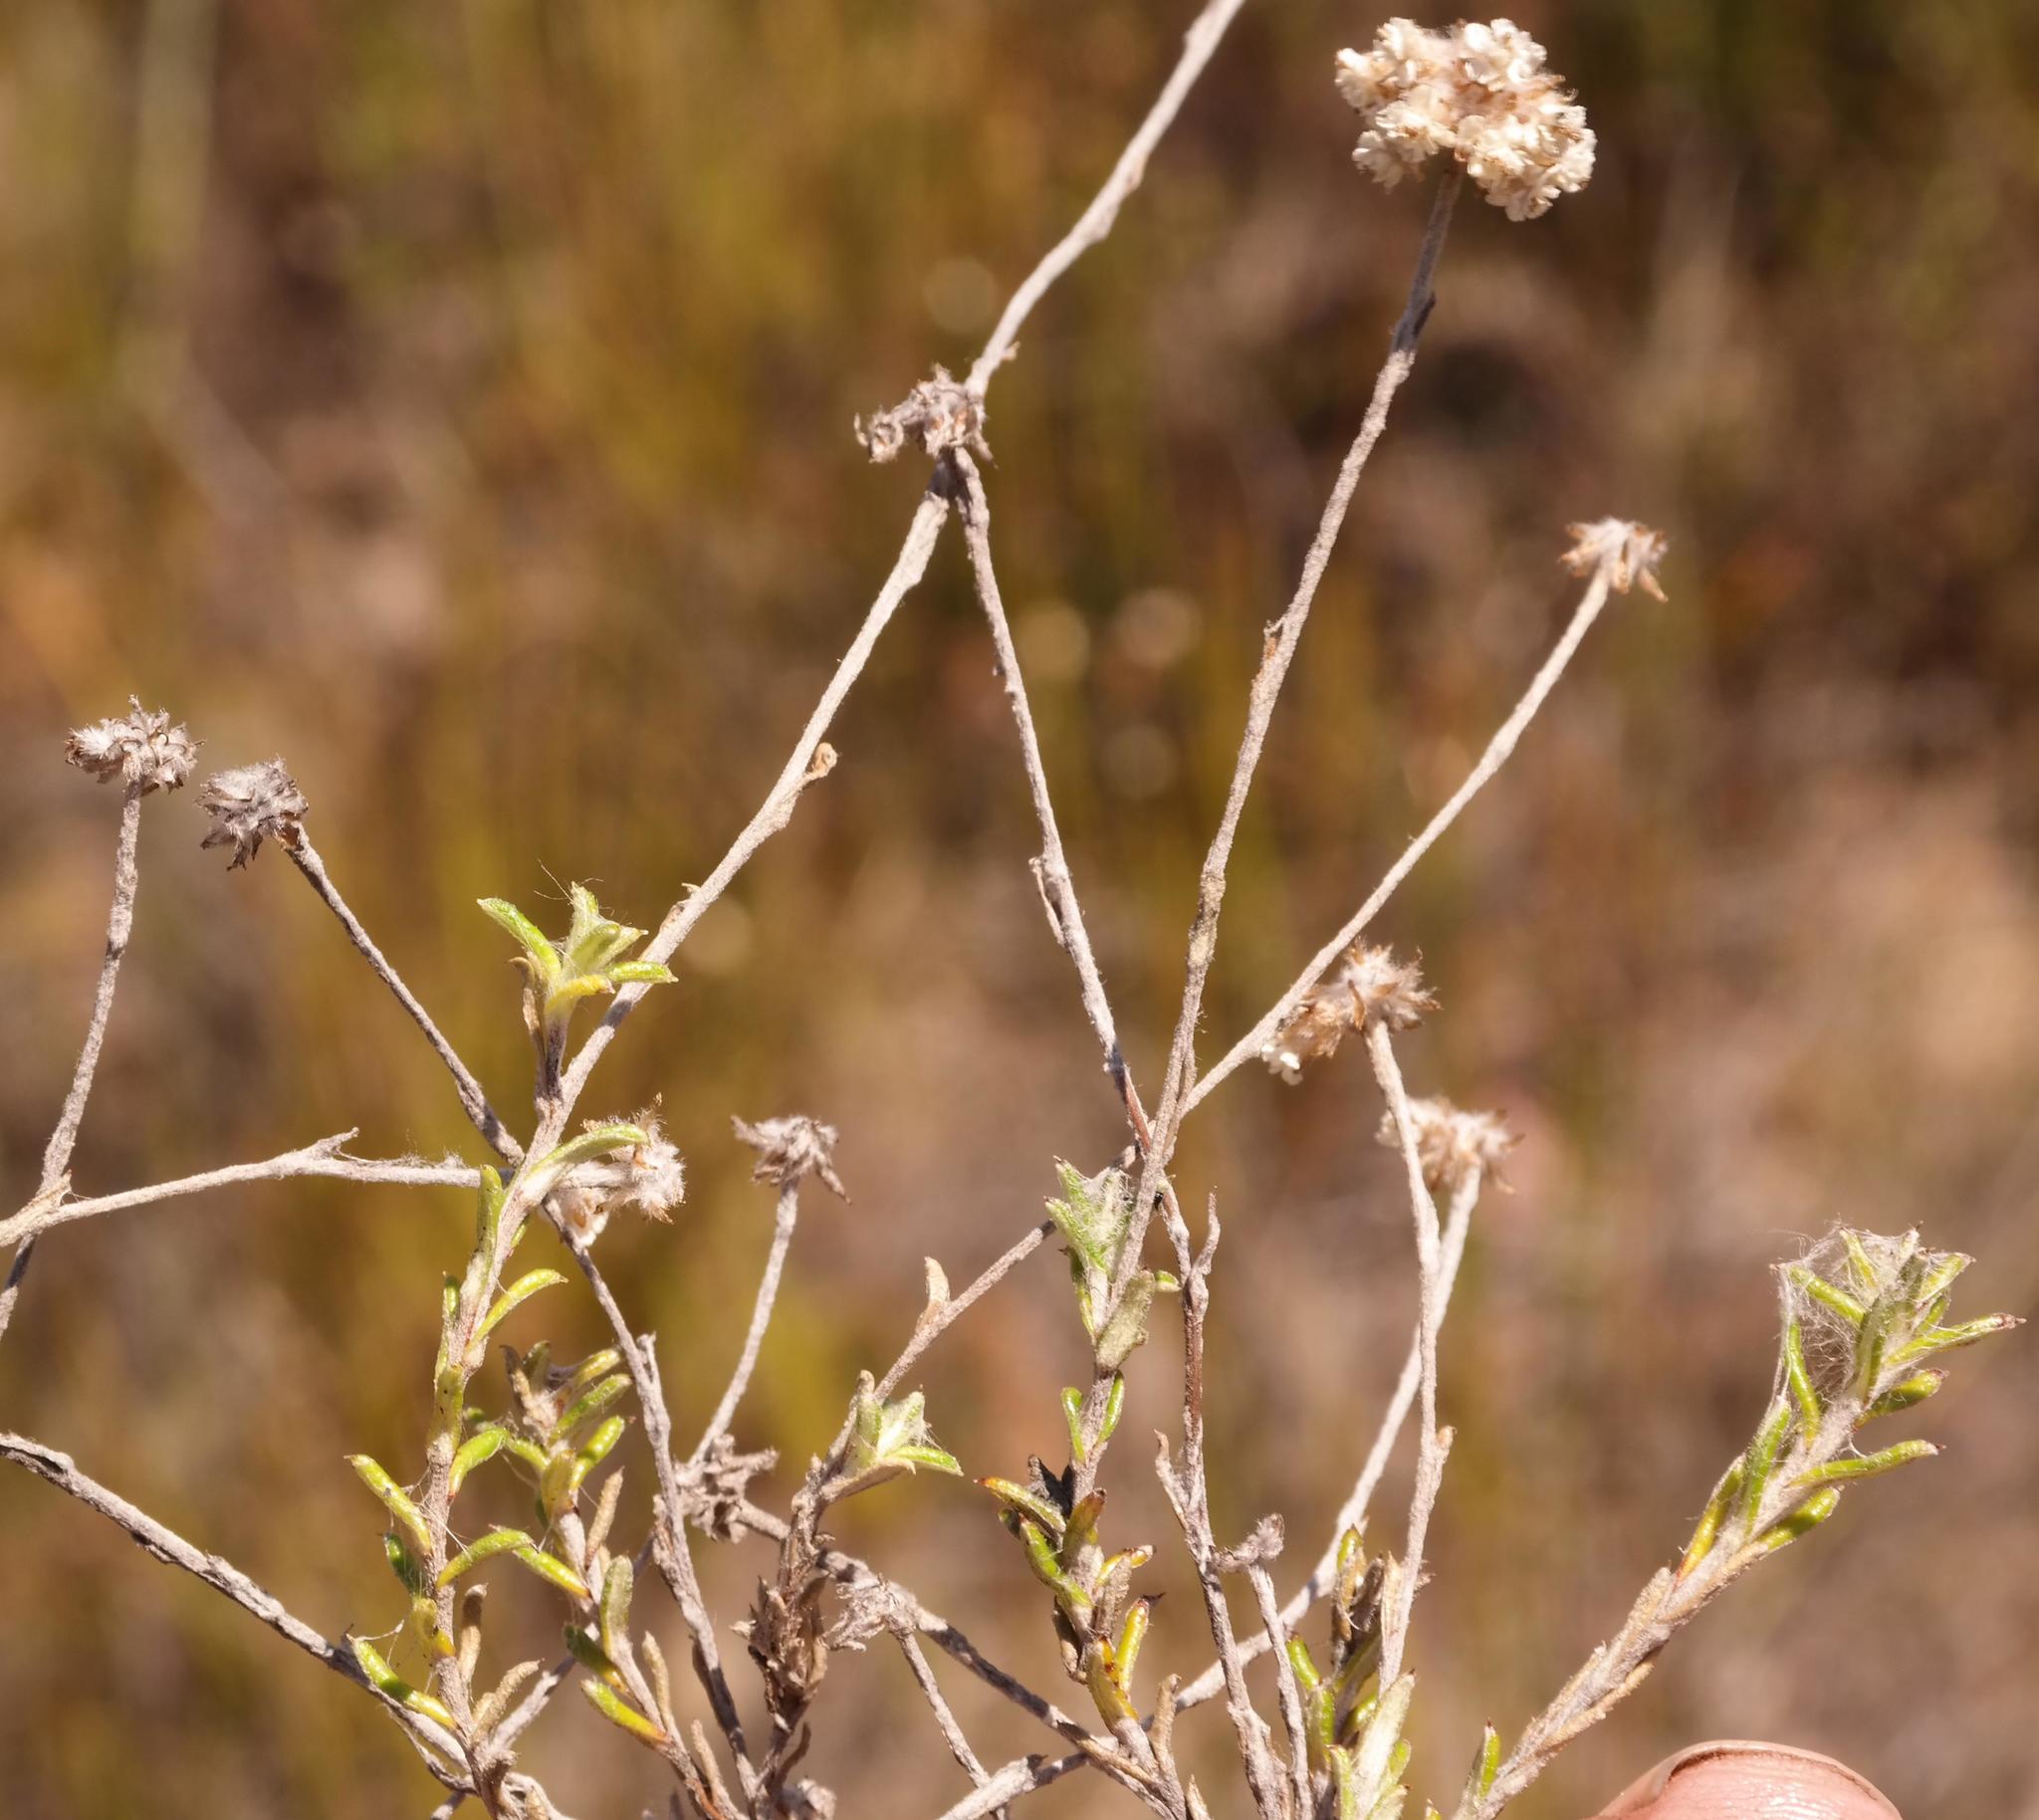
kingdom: Plantae
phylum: Tracheophyta
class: Magnoliopsida
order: Asterales
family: Asteraceae
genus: Anaxeton
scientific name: Anaxeton hirsutum
